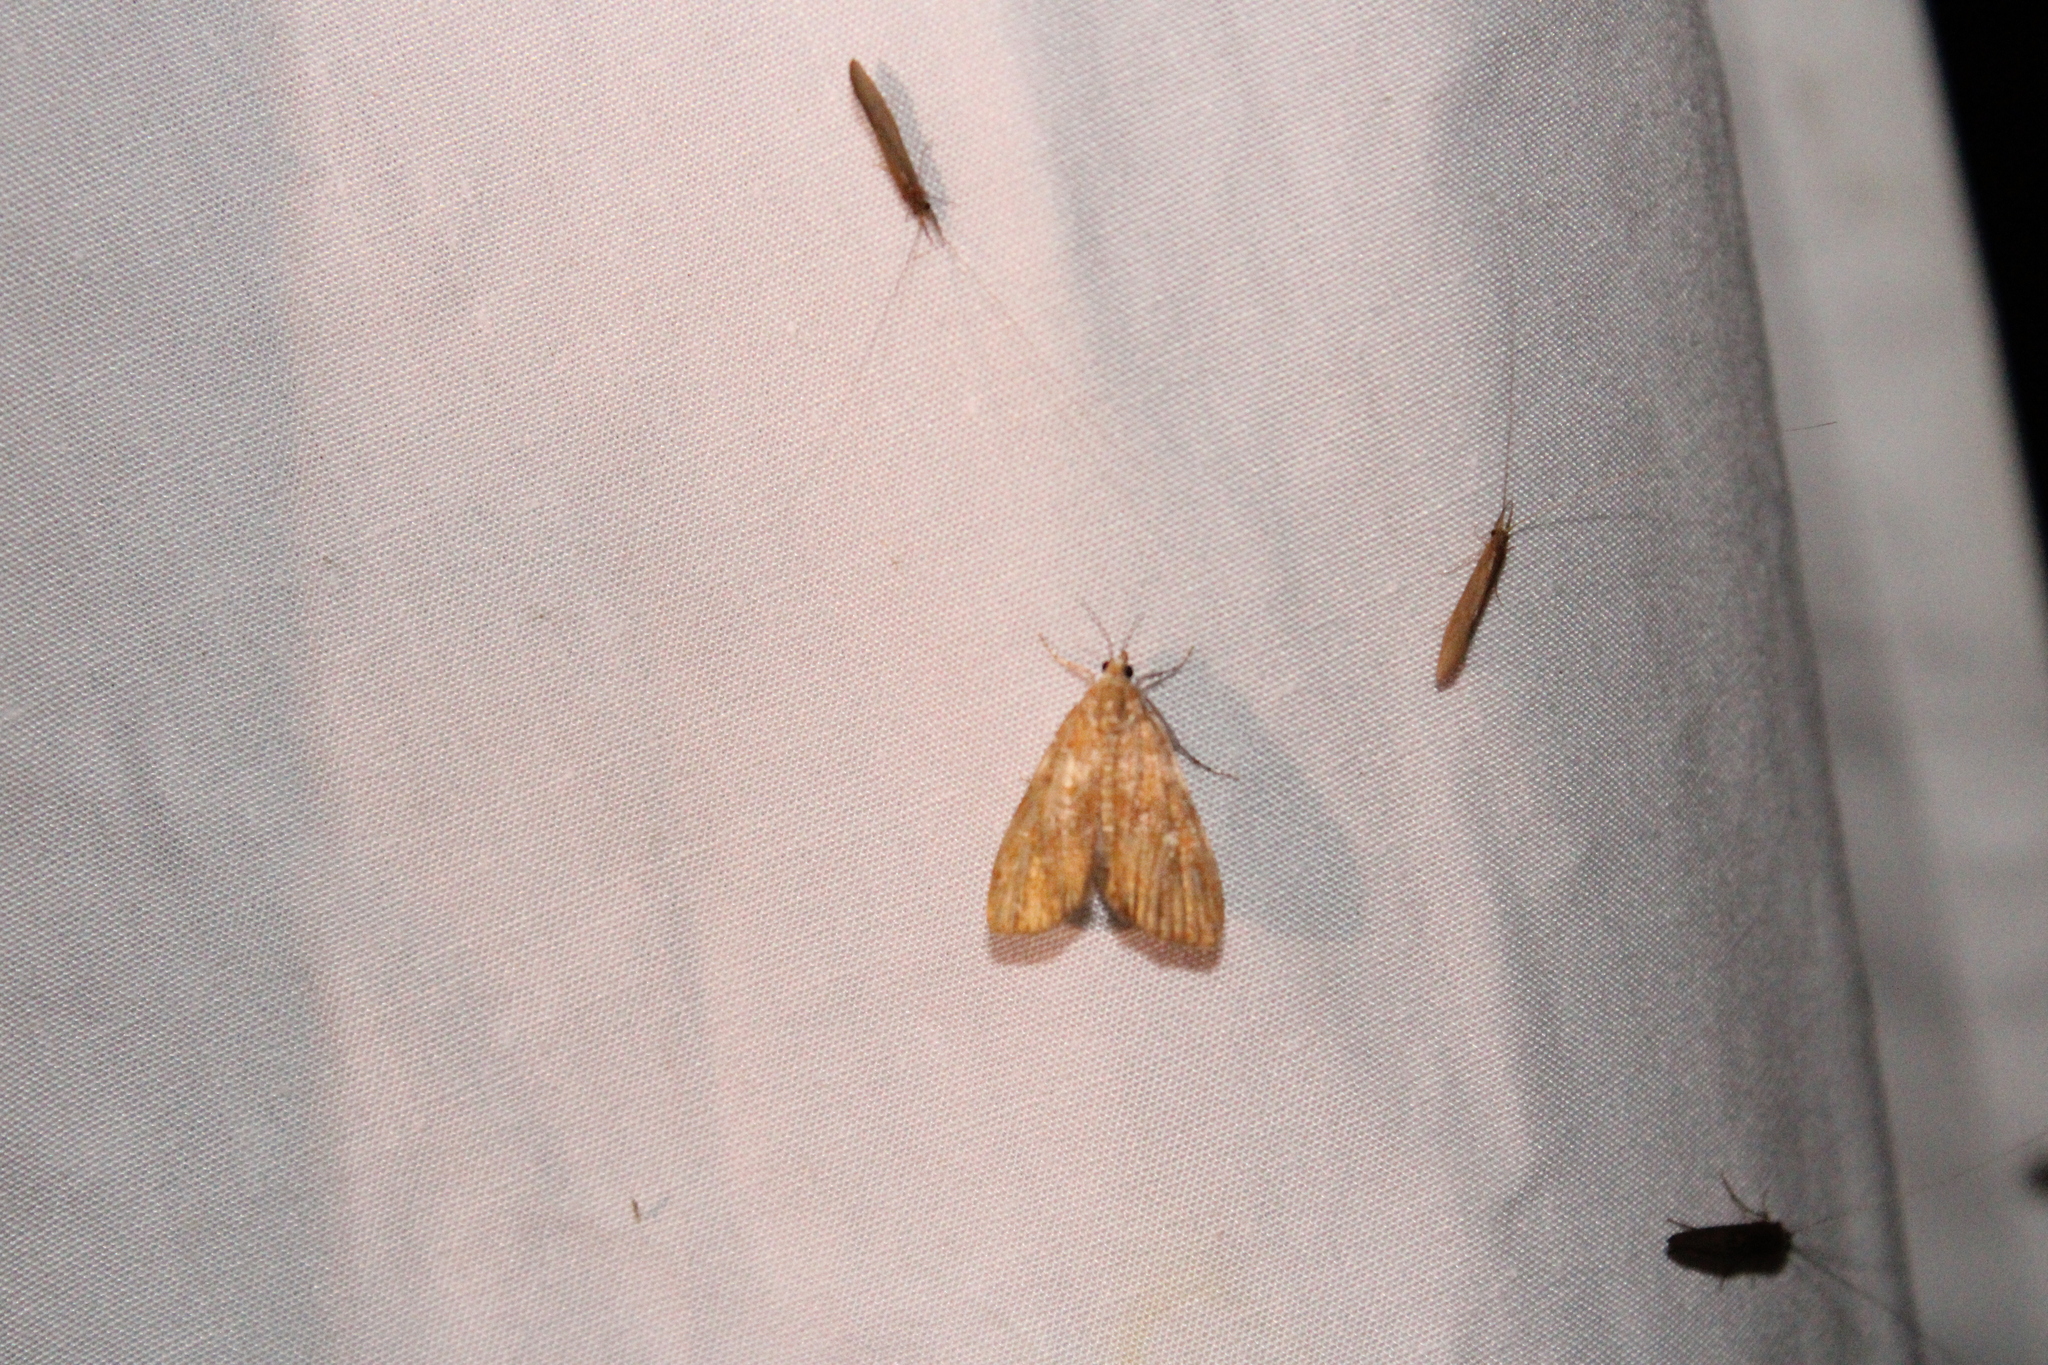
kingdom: Animalia
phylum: Arthropoda
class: Insecta
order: Lepidoptera
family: Crambidae
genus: Elophila
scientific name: Elophila gyralis
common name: Waterlily borer moth
